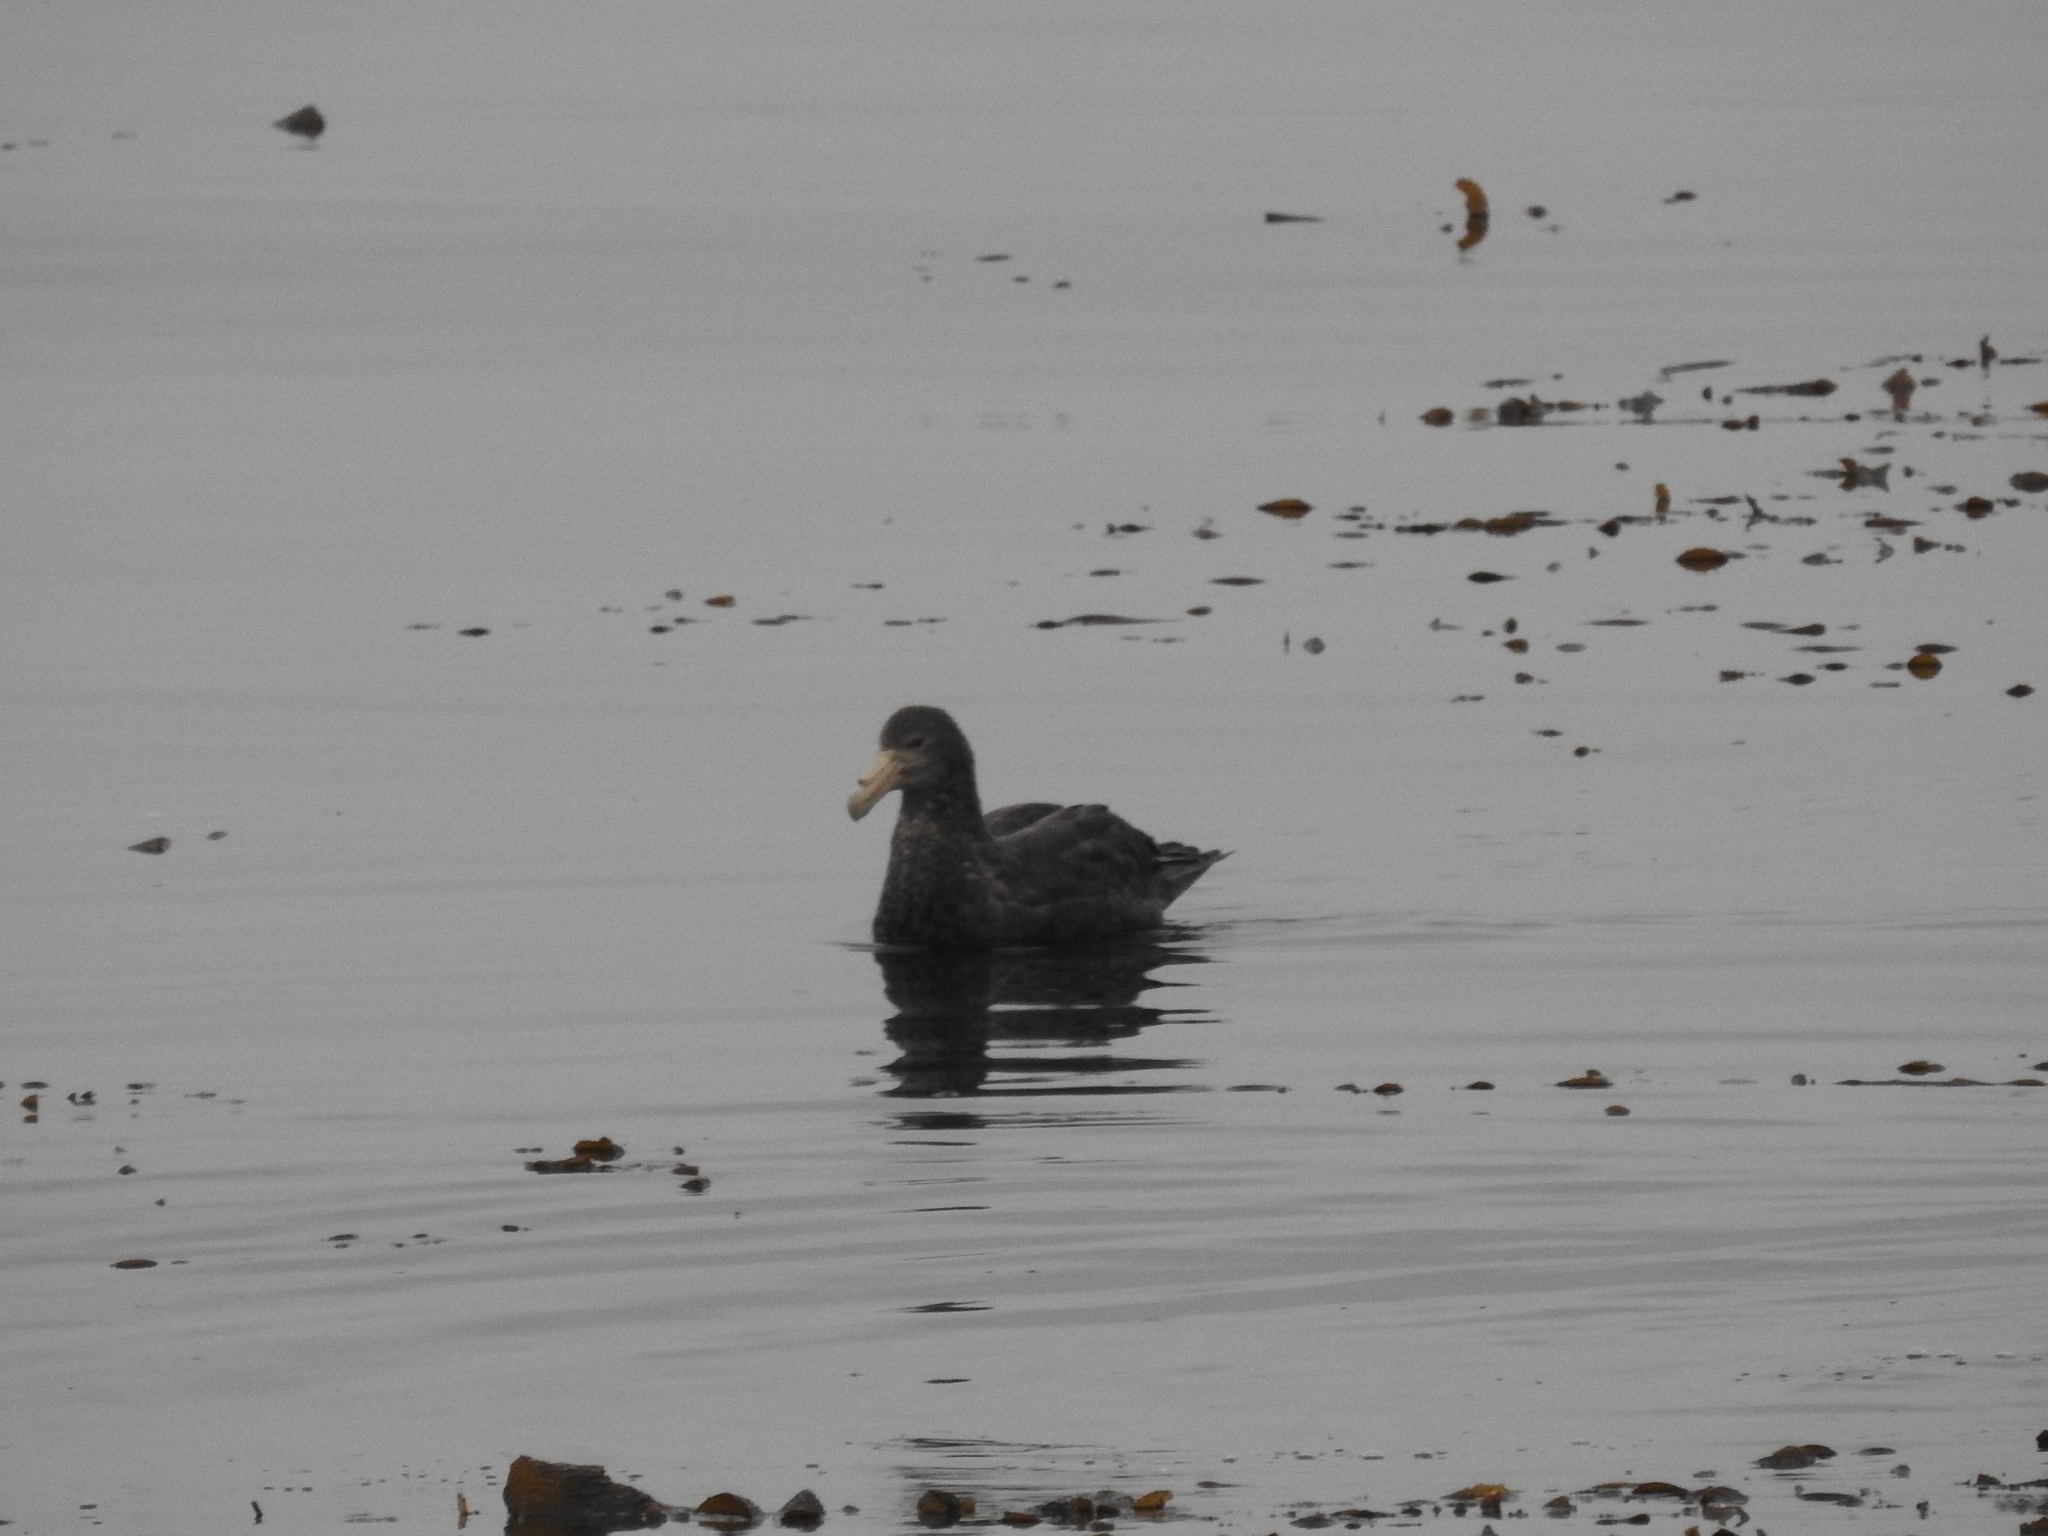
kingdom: Animalia
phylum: Chordata
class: Aves
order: Procellariiformes
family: Procellariidae
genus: Macronectes
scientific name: Macronectes giganteus
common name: Southern giant petrel
